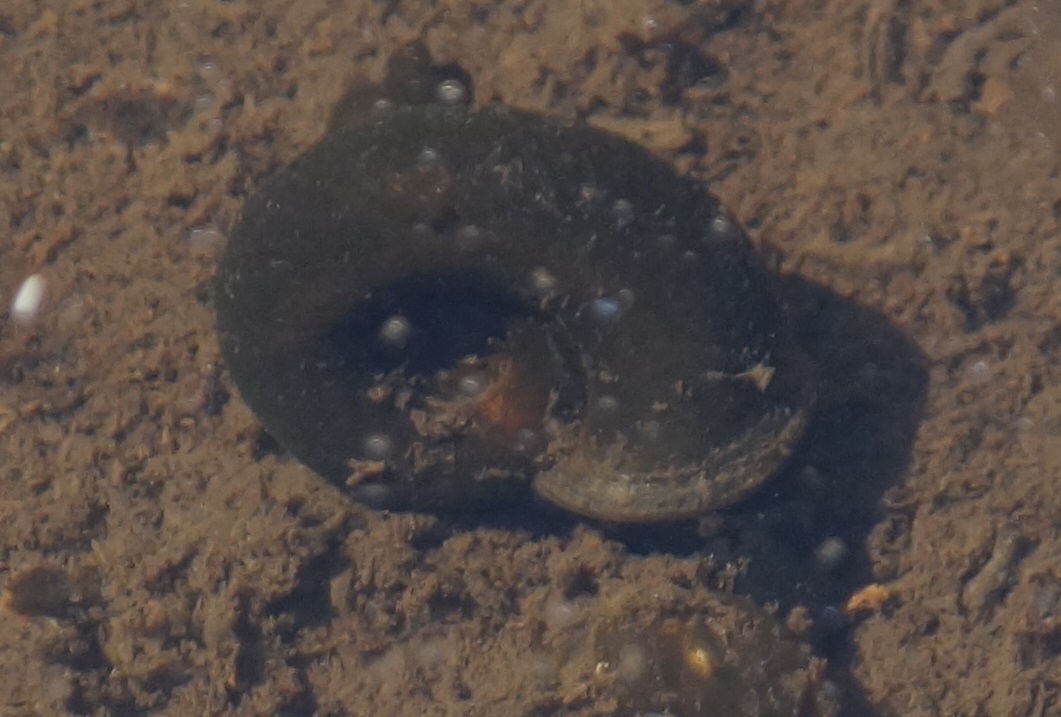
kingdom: Animalia
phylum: Mollusca
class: Gastropoda
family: Planorbidae
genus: Planorbarius
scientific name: Planorbarius corneus
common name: Great ramshorn
